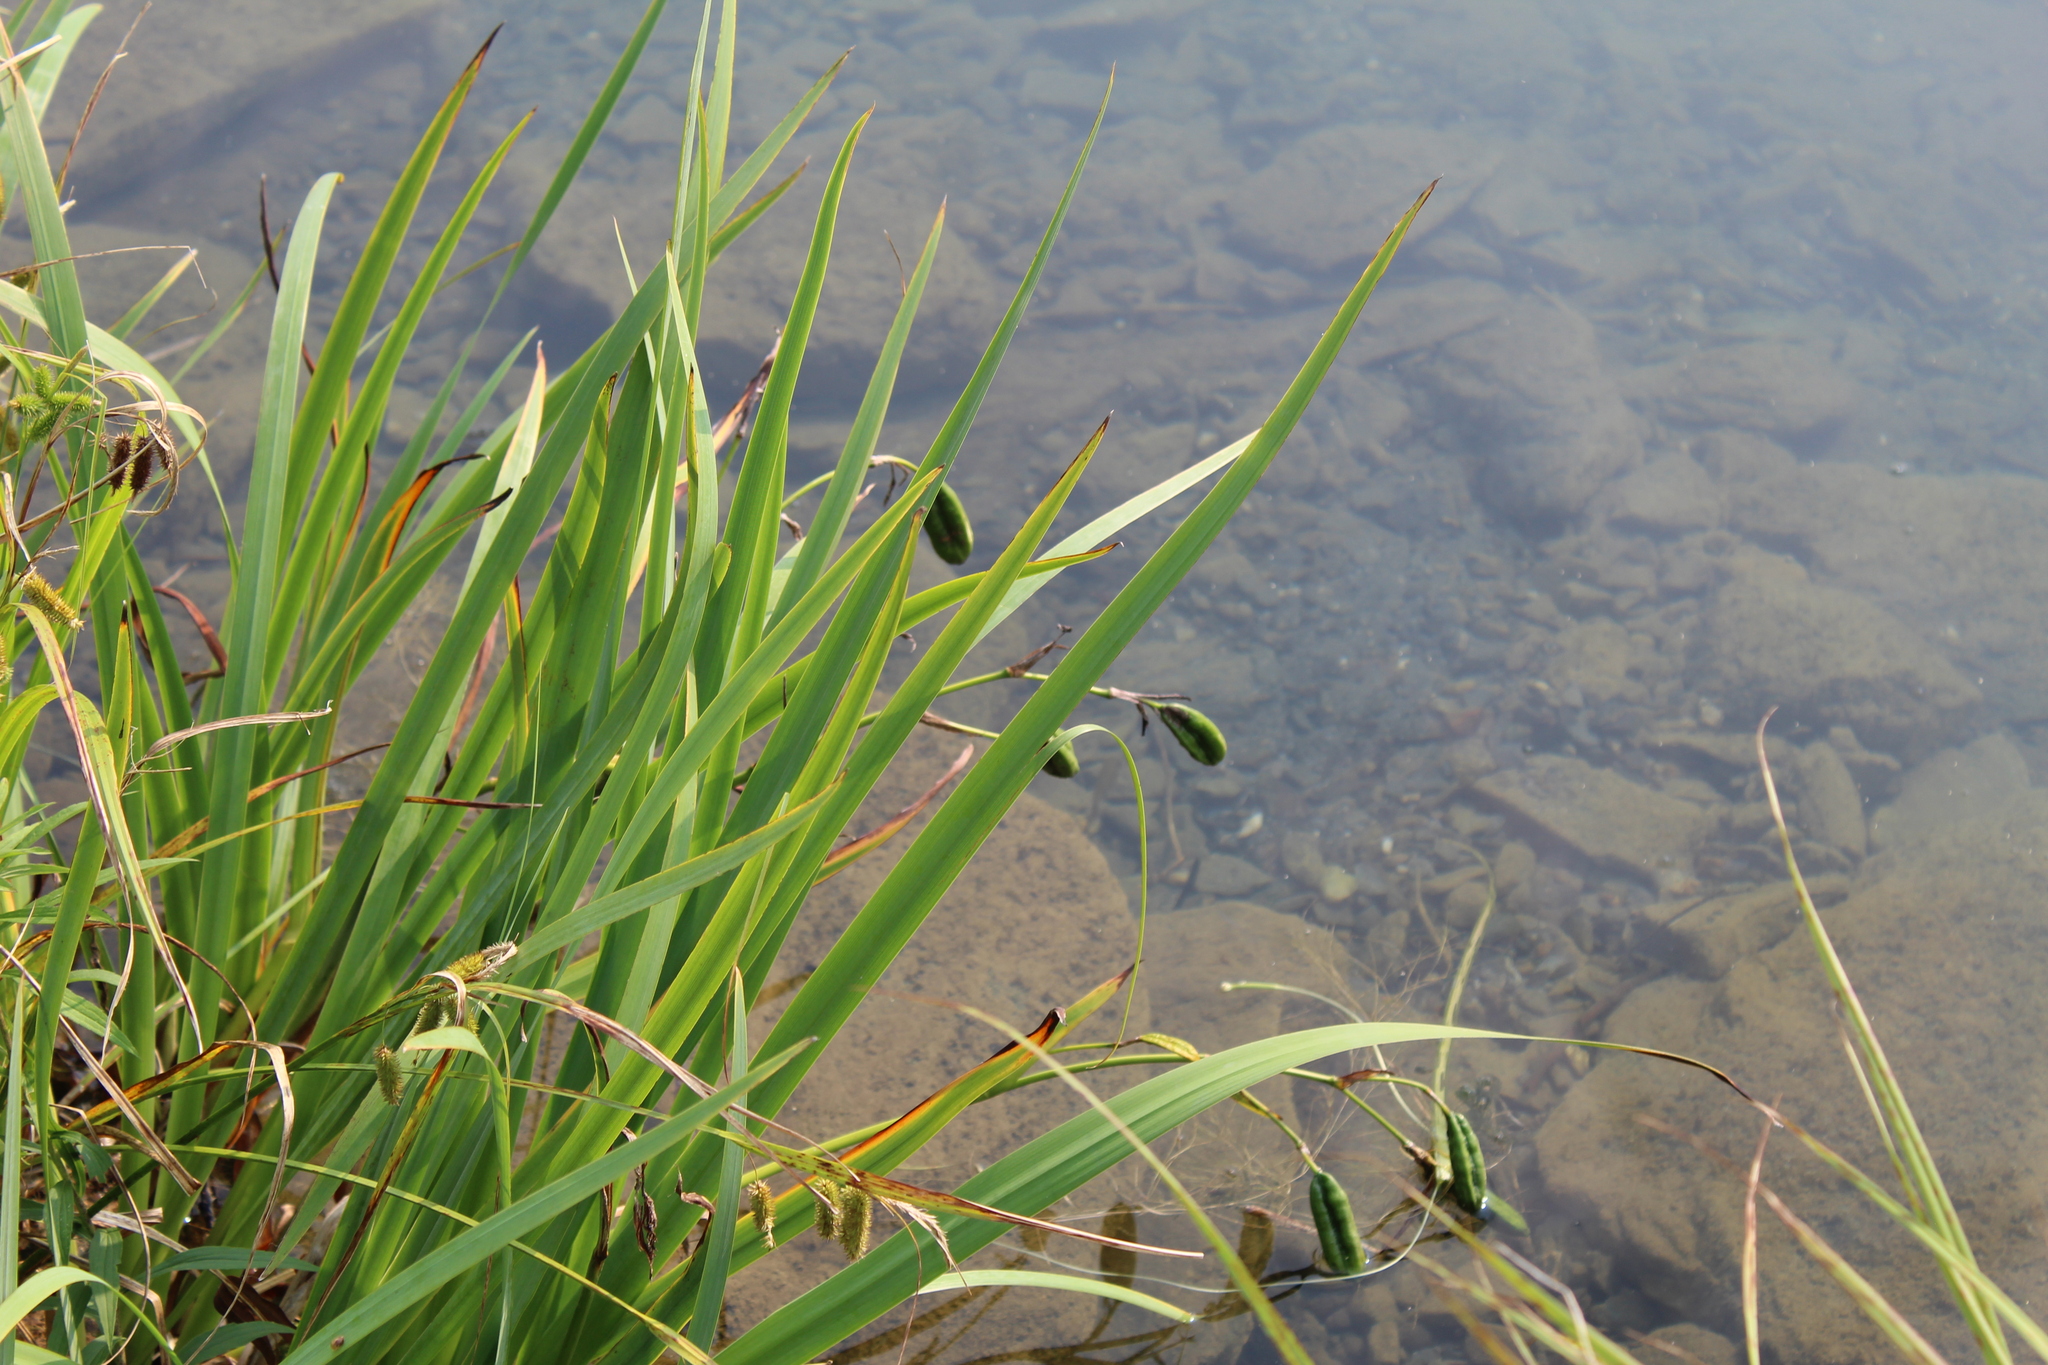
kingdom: Plantae
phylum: Tracheophyta
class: Liliopsida
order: Asparagales
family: Iridaceae
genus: Iris
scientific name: Iris pseudacorus
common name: Yellow flag
